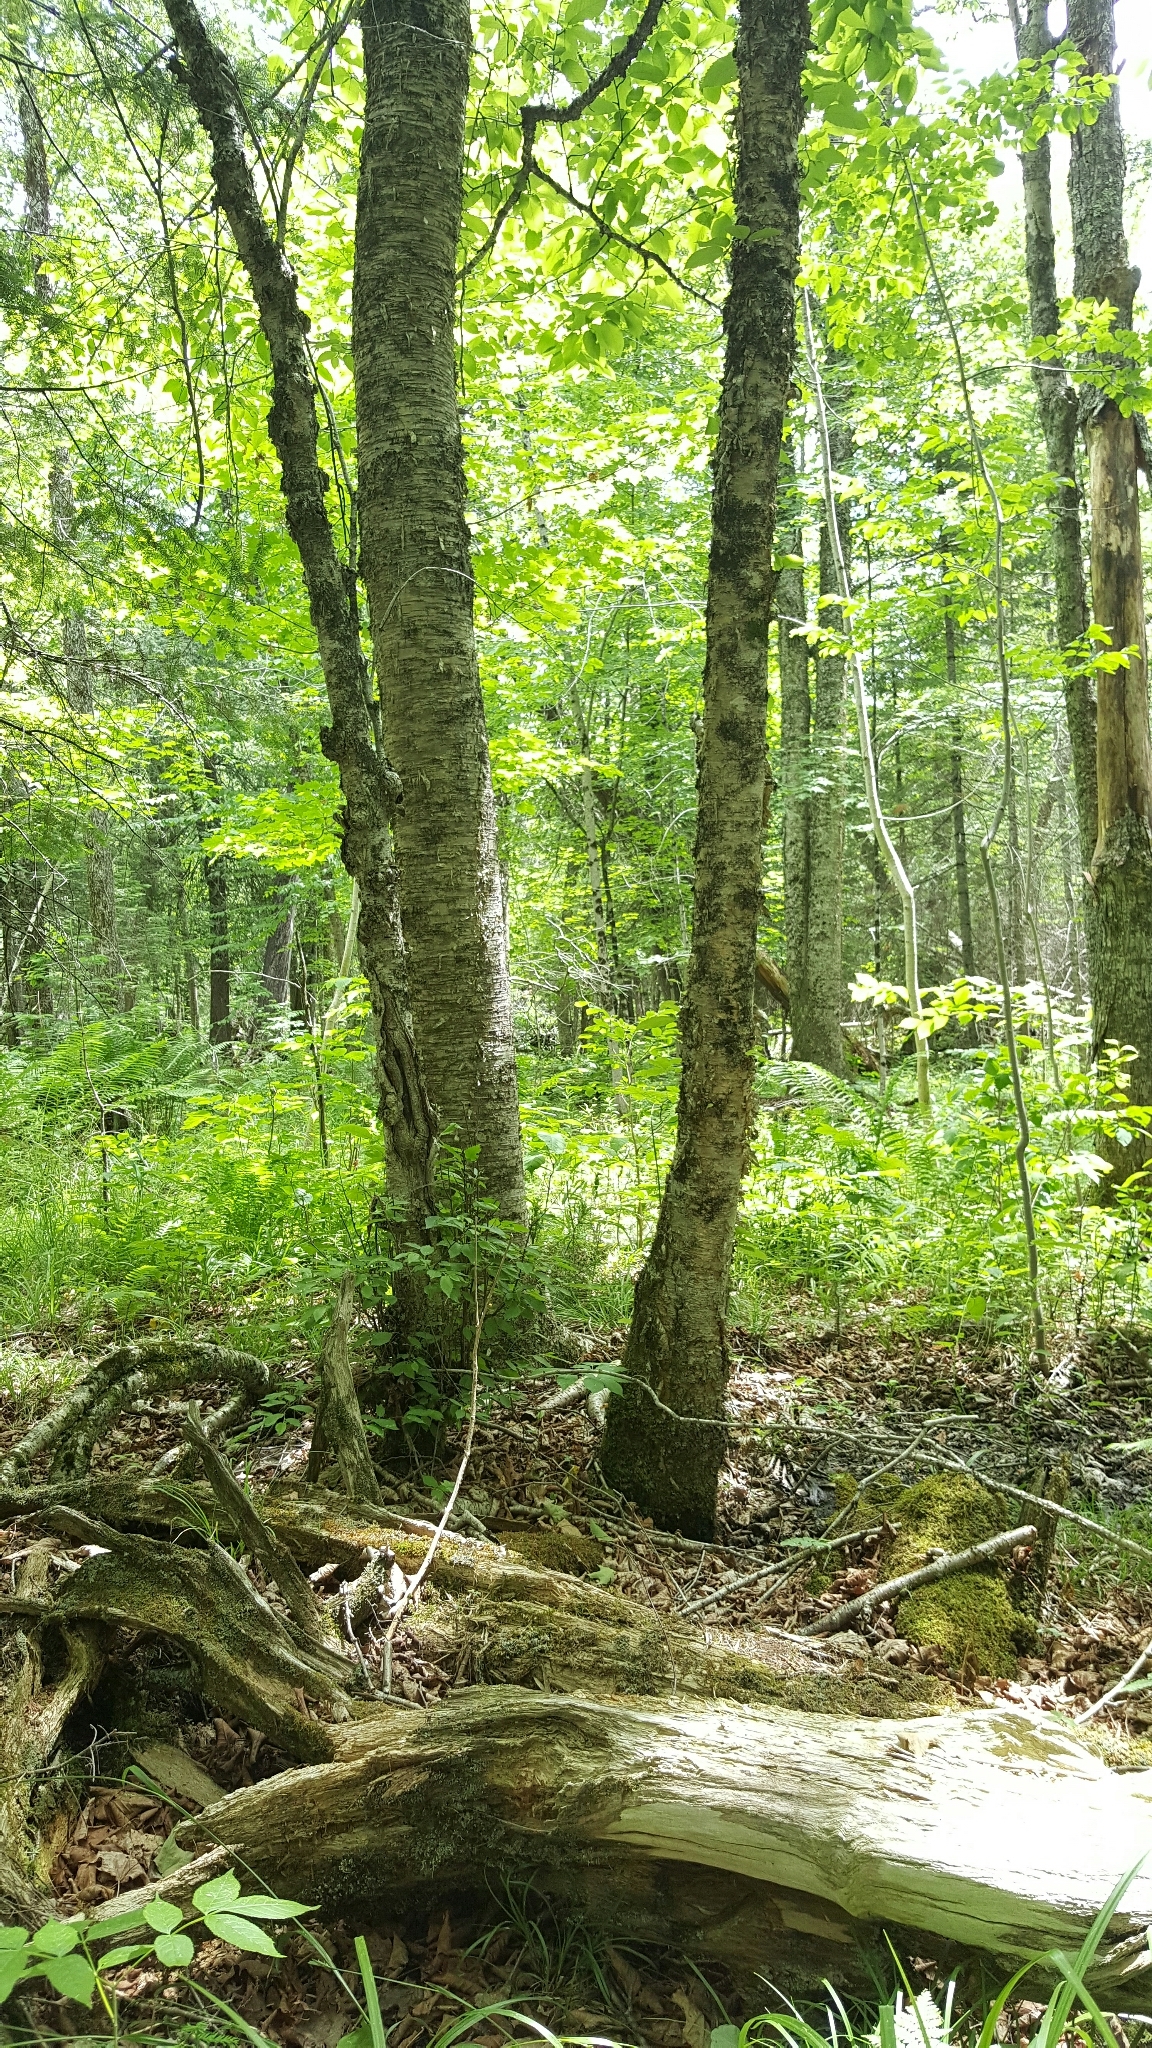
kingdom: Plantae
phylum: Tracheophyta
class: Magnoliopsida
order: Fagales
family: Betulaceae
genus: Betula
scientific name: Betula alleghaniensis
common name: Yellow birch
